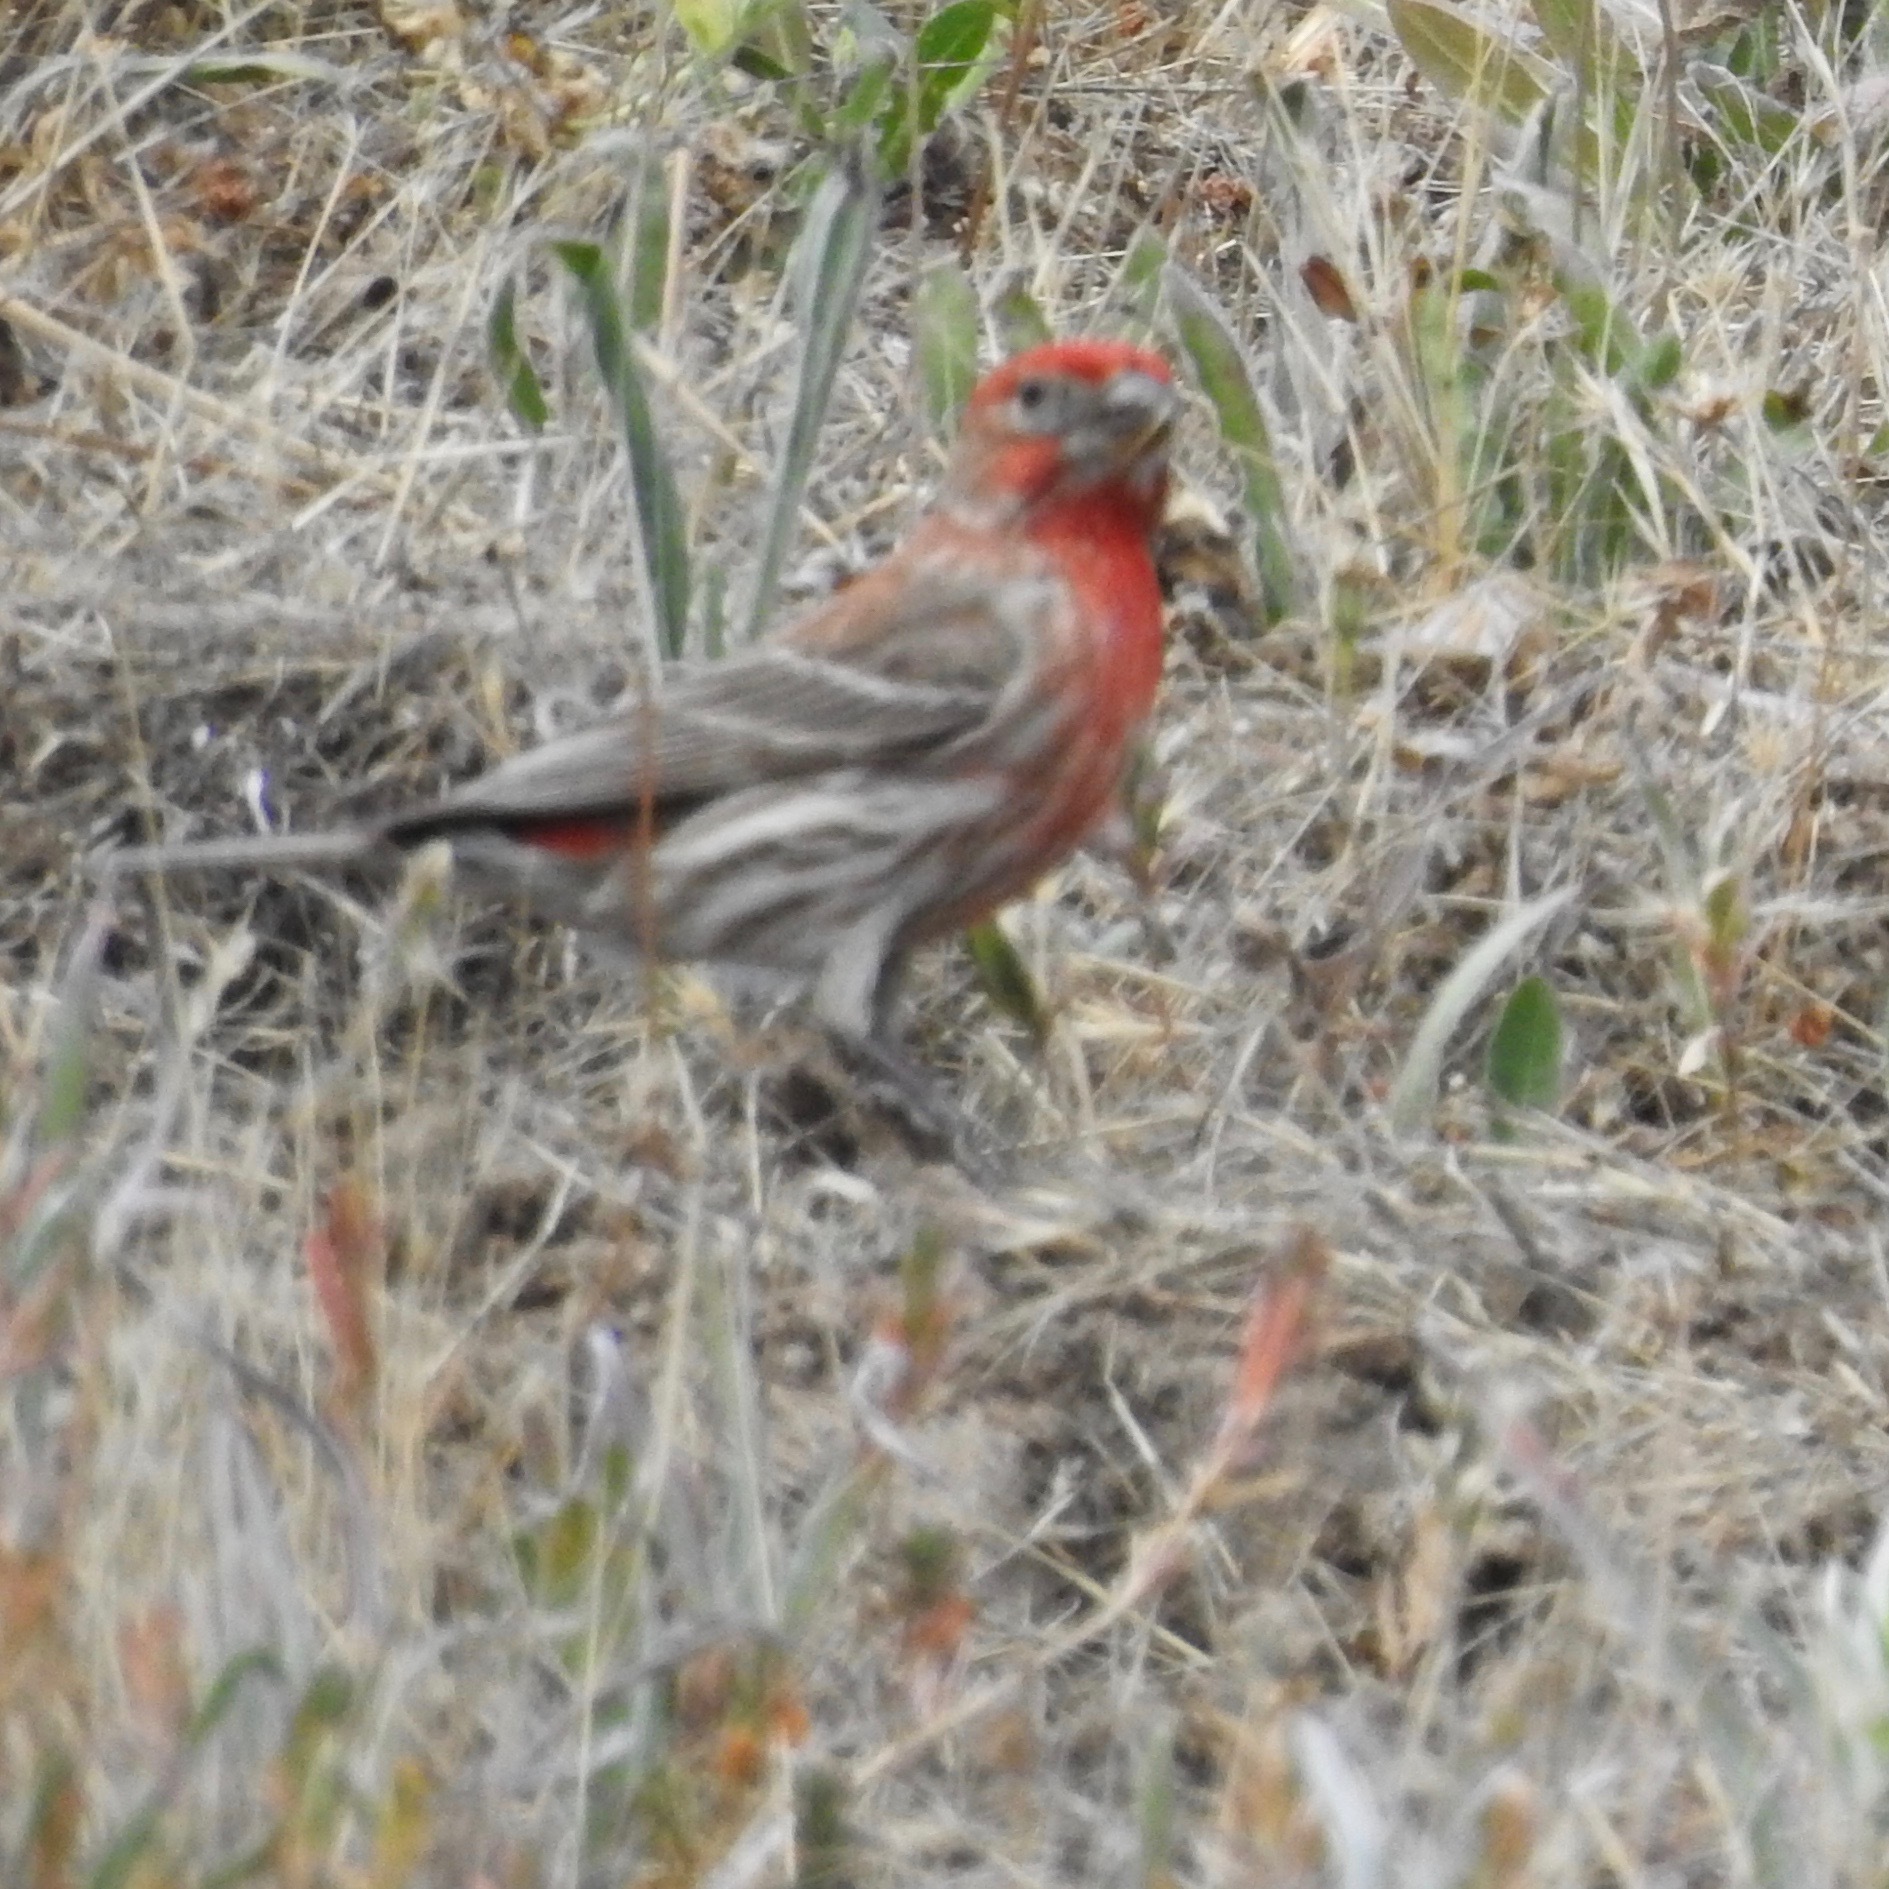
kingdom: Animalia
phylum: Chordata
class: Aves
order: Passeriformes
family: Fringillidae
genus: Haemorhous
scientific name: Haemorhous mexicanus
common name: House finch
